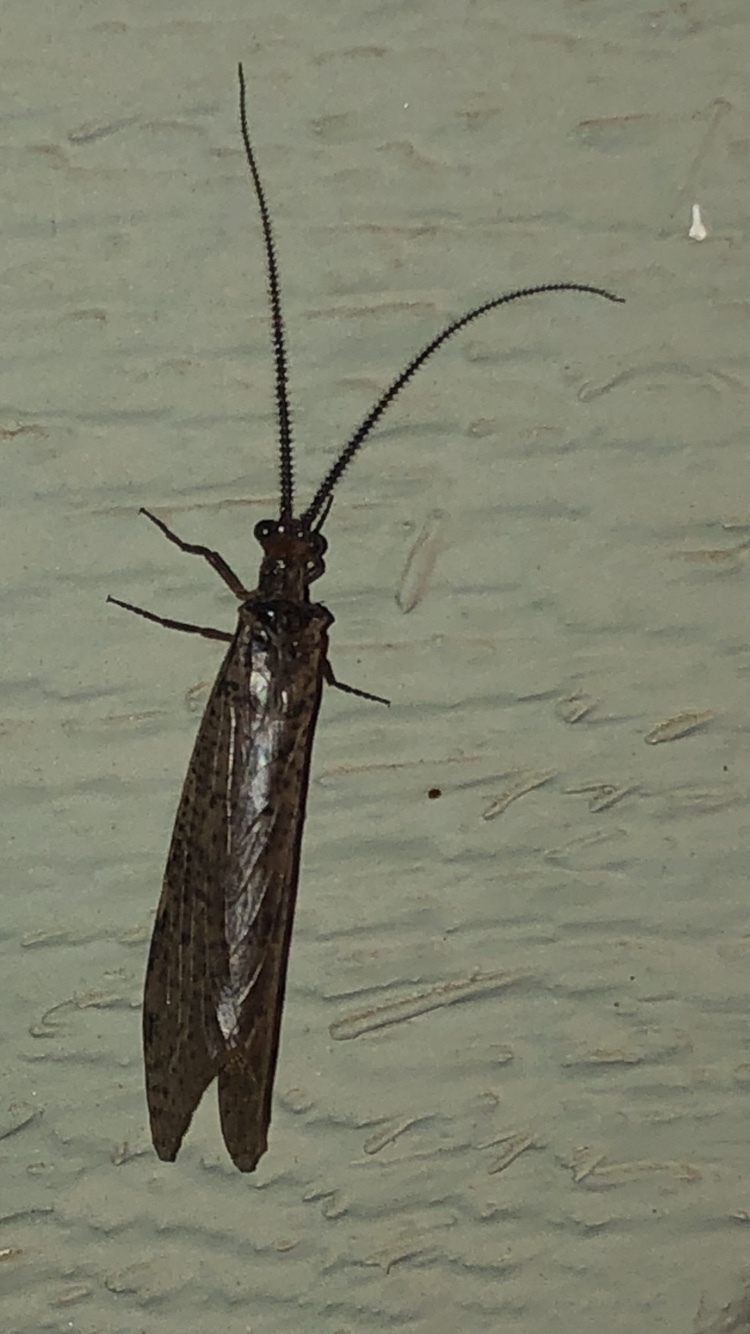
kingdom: Animalia
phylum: Arthropoda
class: Insecta
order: Megaloptera
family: Corydalidae
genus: Neohermes
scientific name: Neohermes concolor
